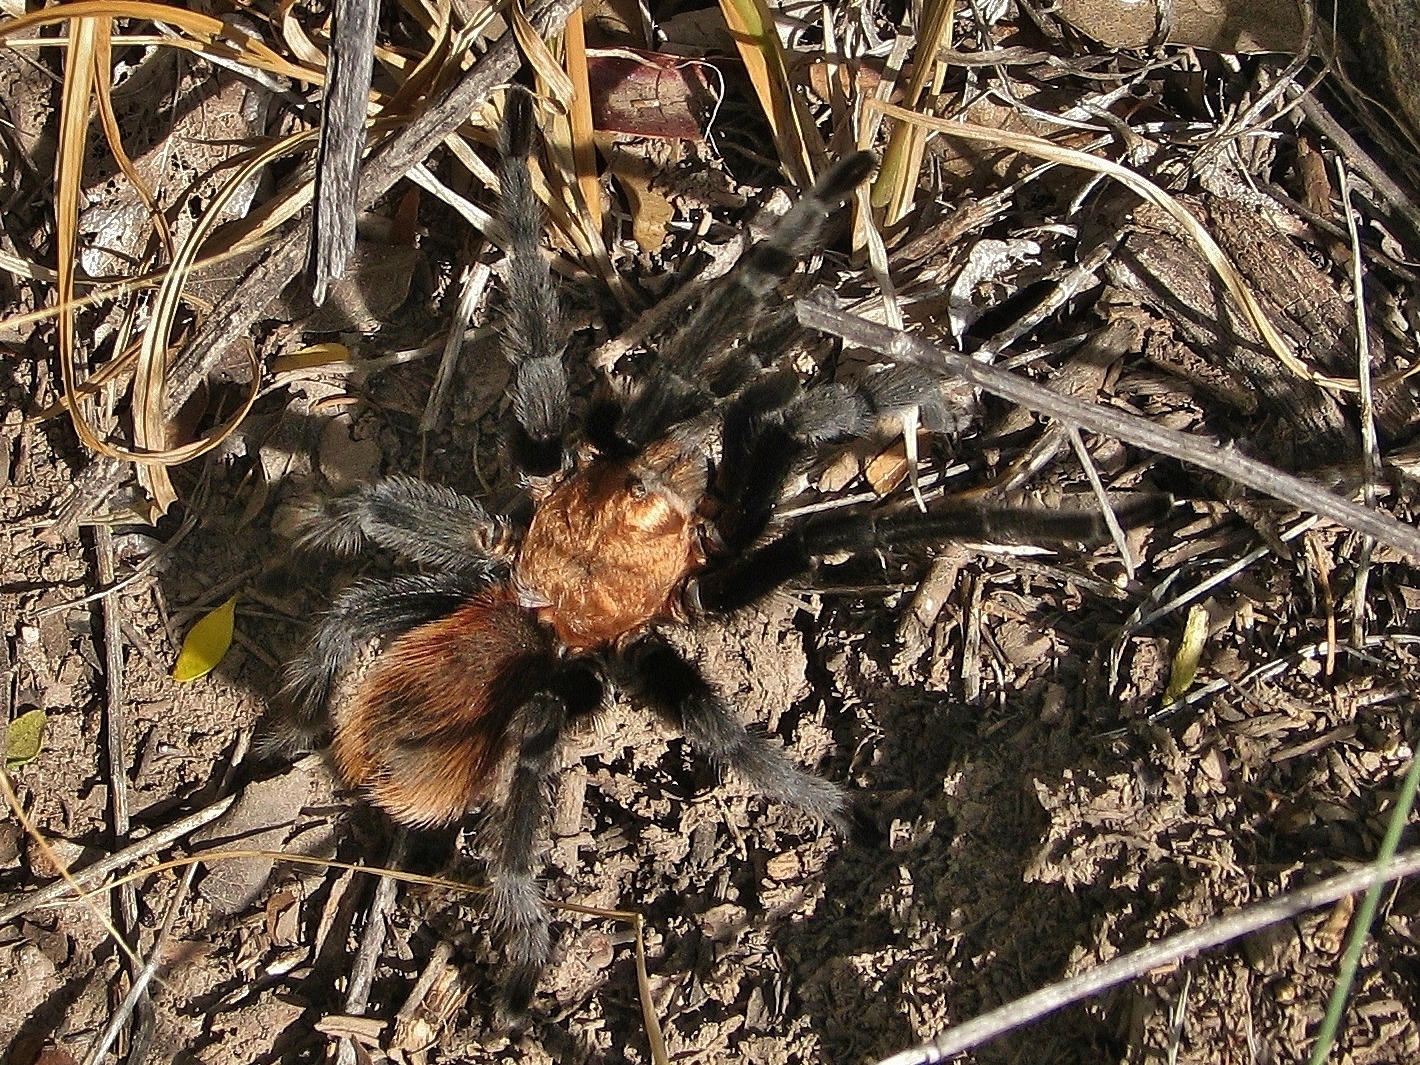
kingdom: Animalia
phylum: Arthropoda
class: Arachnida
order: Araneae
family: Theraphosidae
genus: Aphonopelma
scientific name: Aphonopelma hentzi
